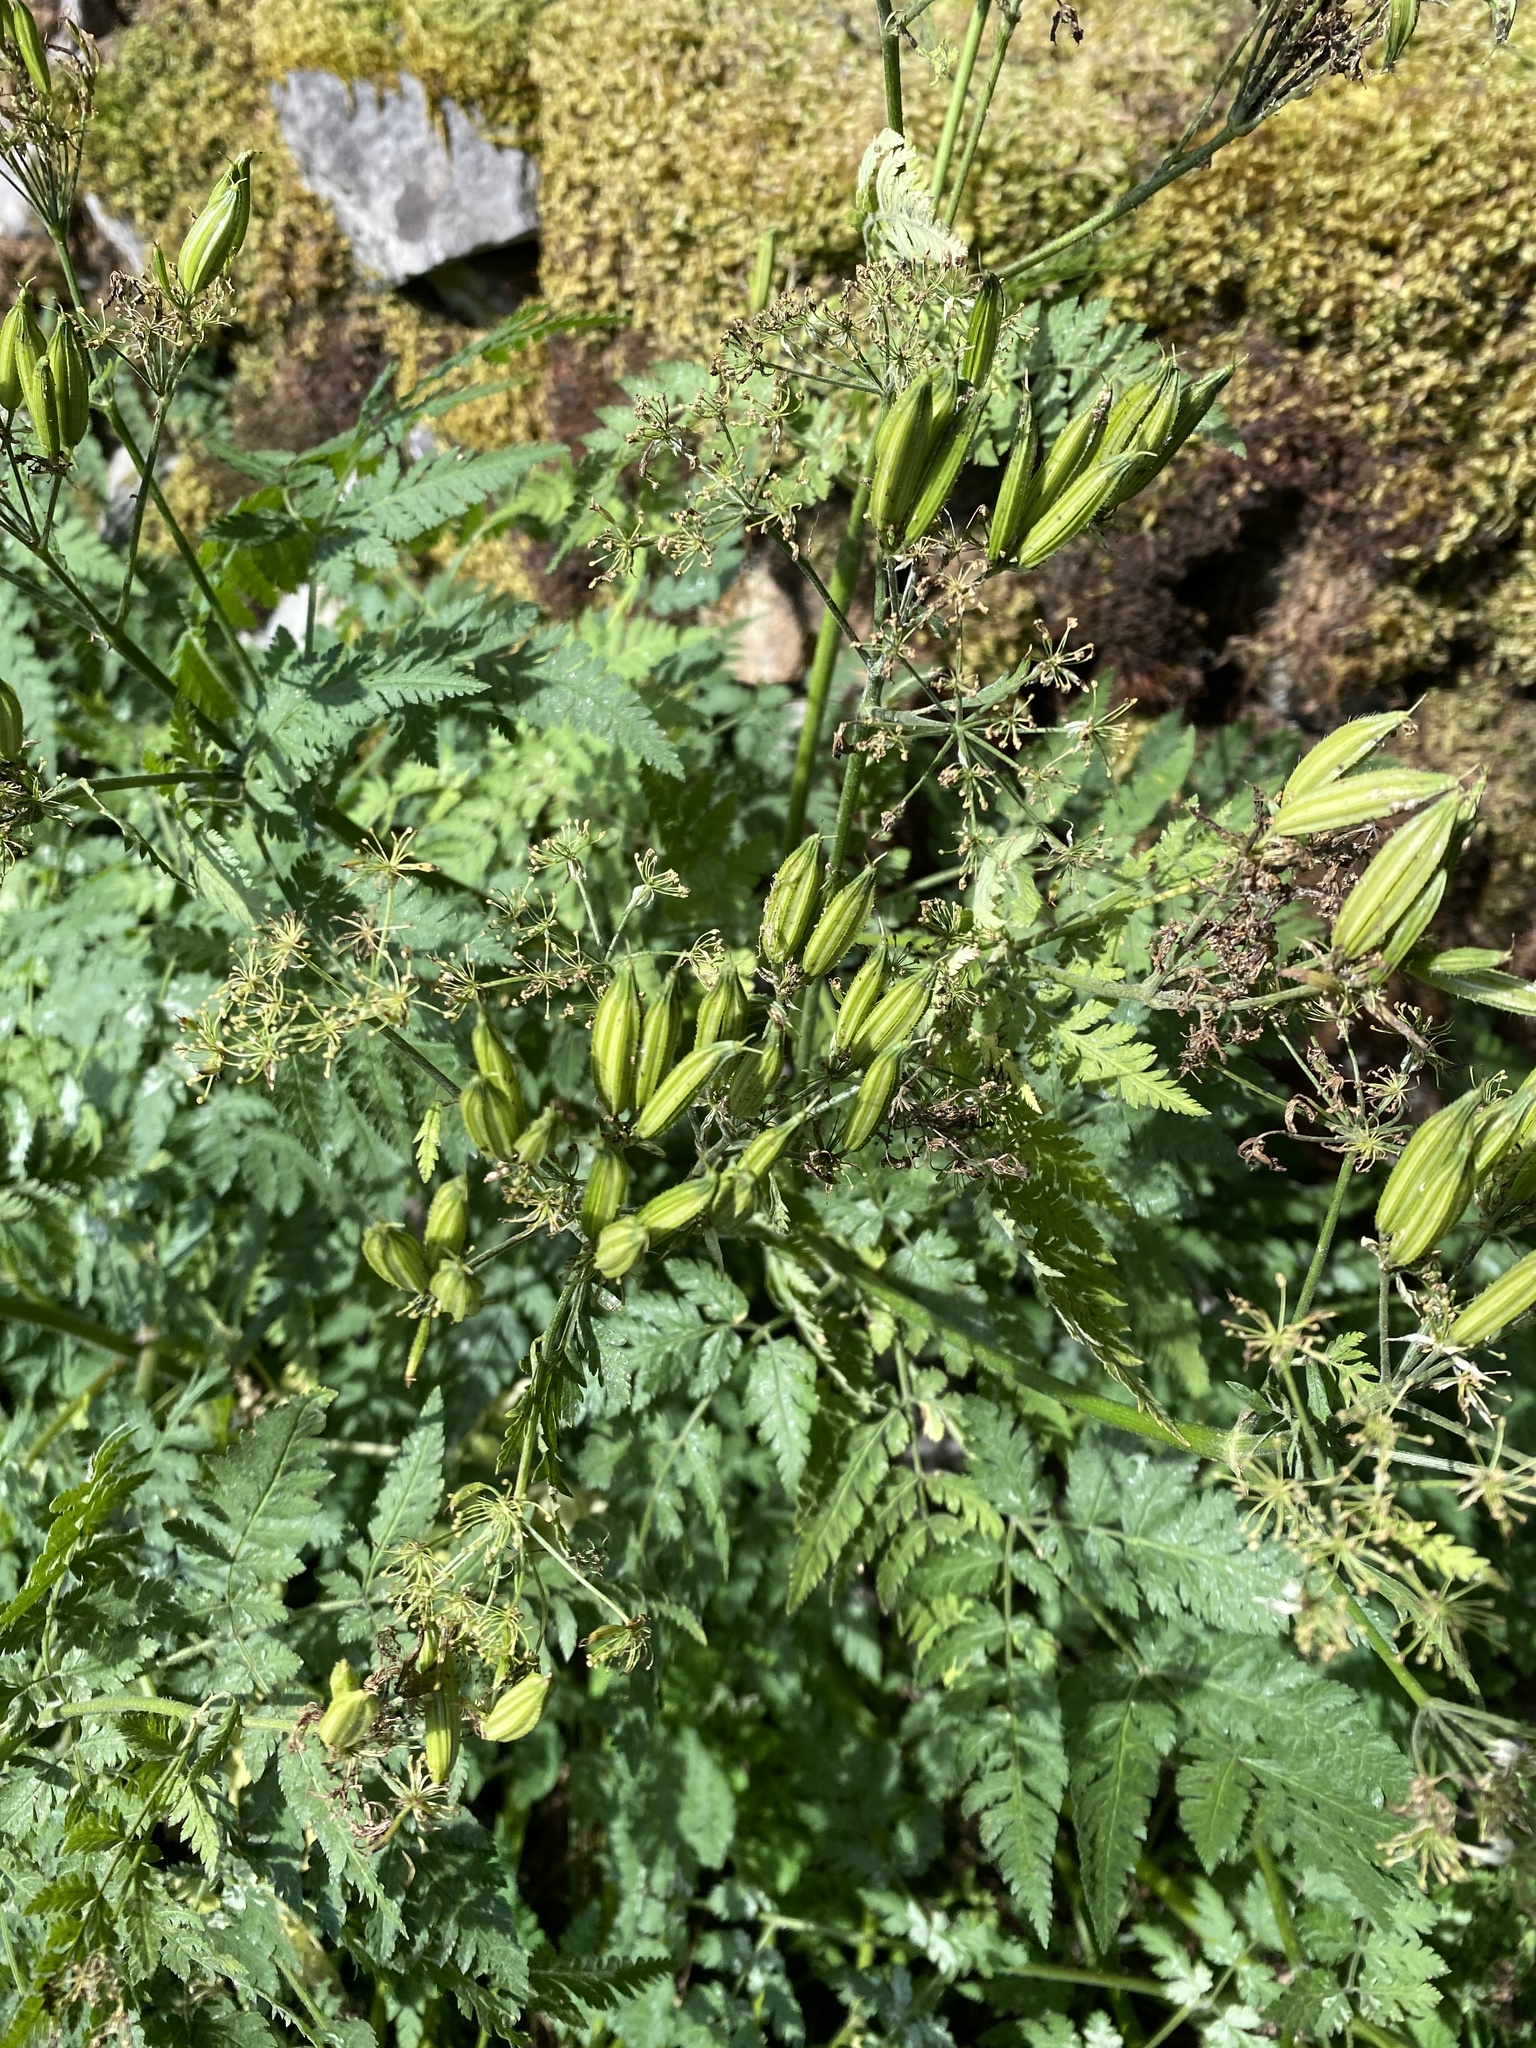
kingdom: Plantae
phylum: Tracheophyta
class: Magnoliopsida
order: Apiales
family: Apiaceae
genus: Myrrhis
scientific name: Myrrhis odorata
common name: Sweet cicely
